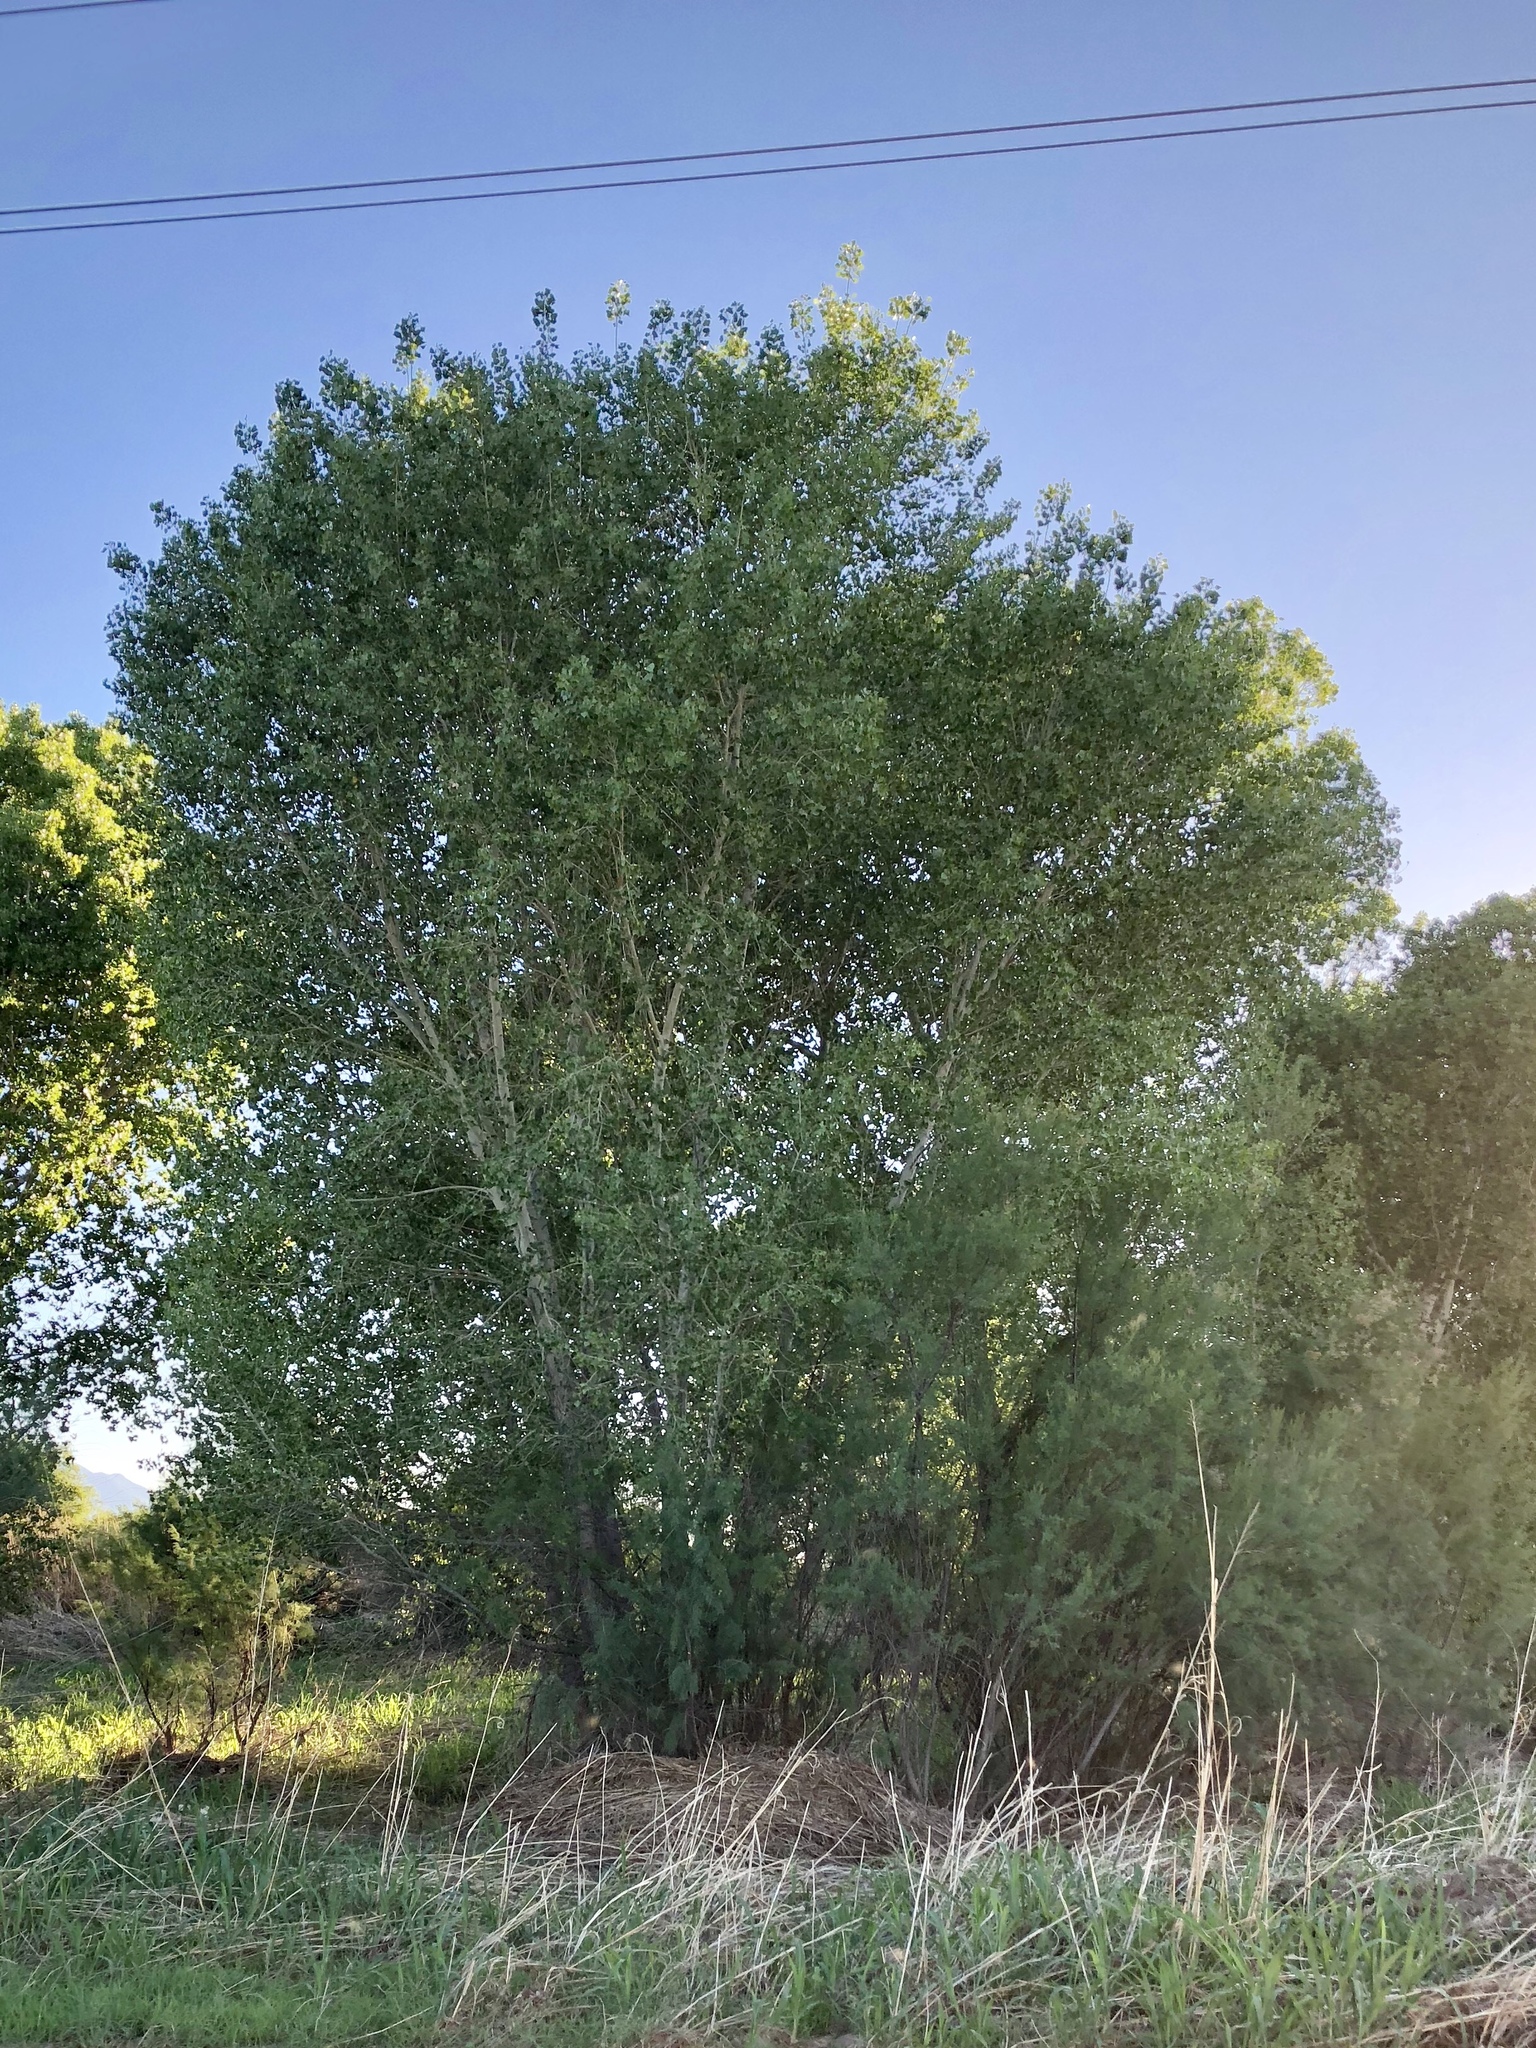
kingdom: Plantae
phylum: Tracheophyta
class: Magnoliopsida
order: Malpighiales
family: Salicaceae
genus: Populus
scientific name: Populus fremontii
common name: Fremont's cottonwood
